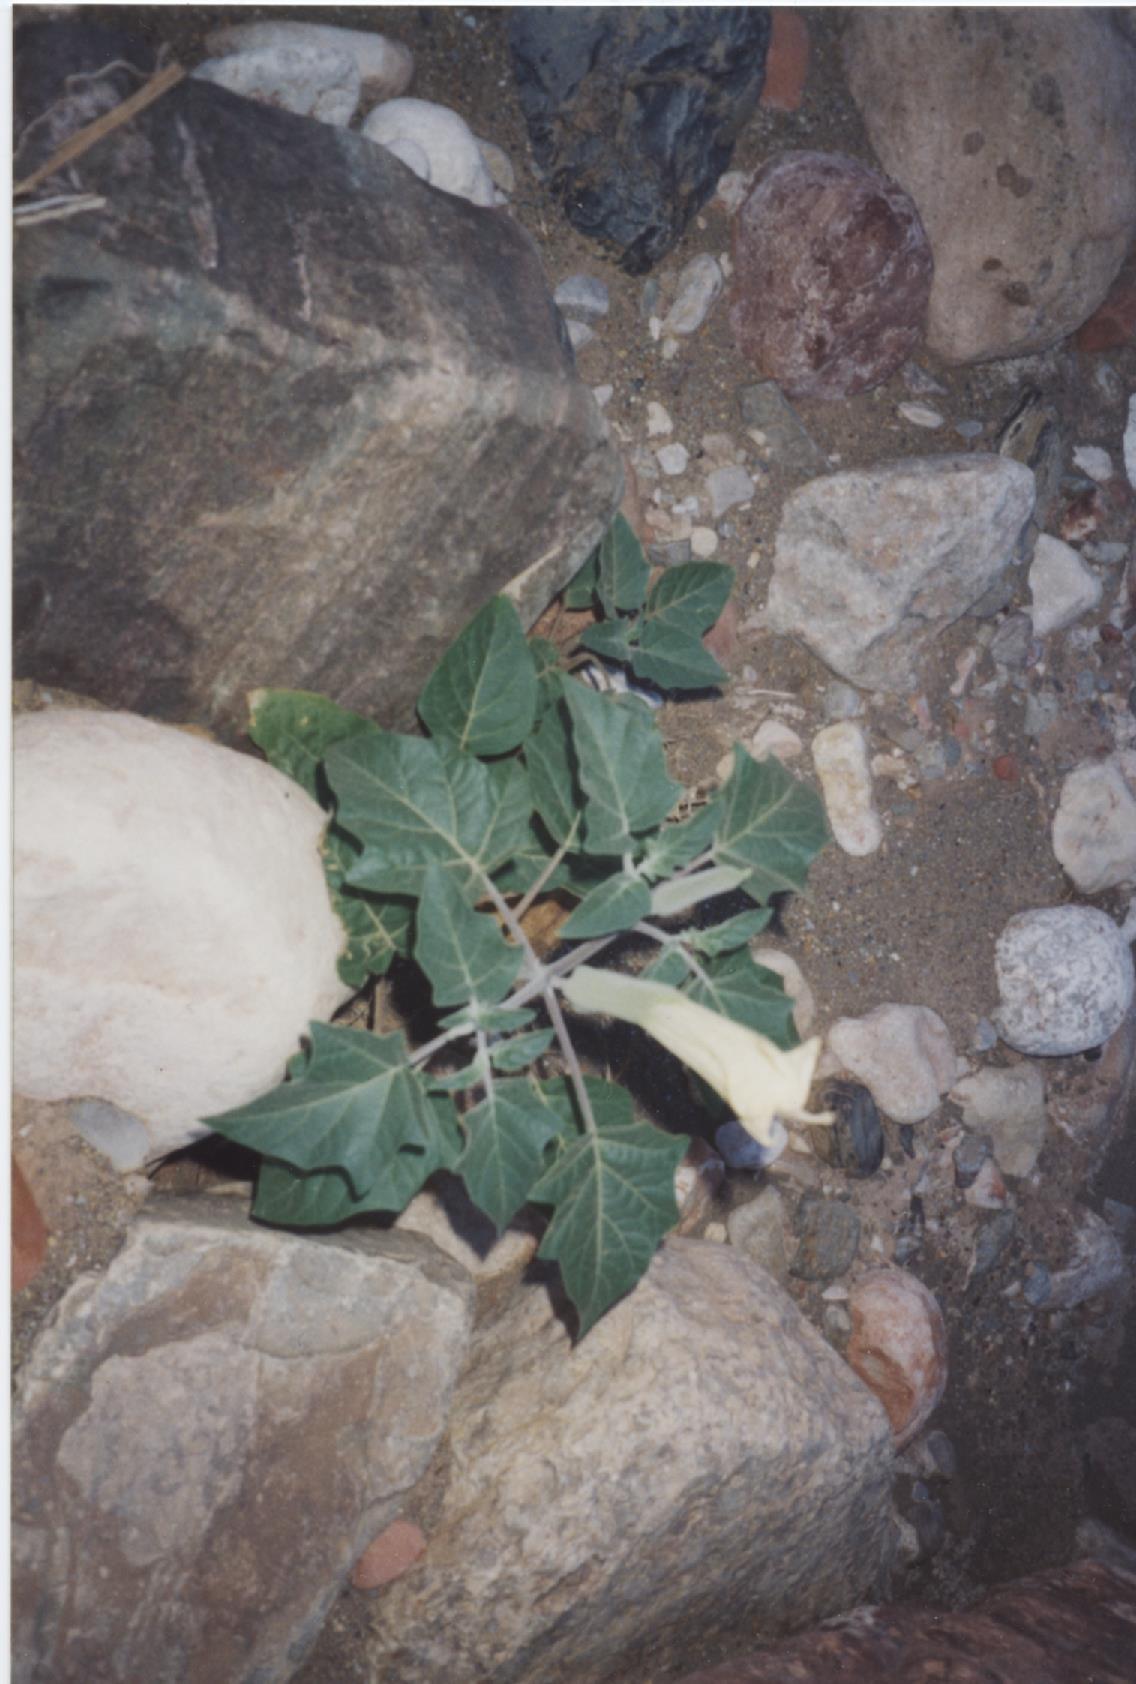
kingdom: Plantae
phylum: Tracheophyta
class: Magnoliopsida
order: Solanales
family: Solanaceae
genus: Datura
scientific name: Datura wrightii
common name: Sacred thorn-apple
